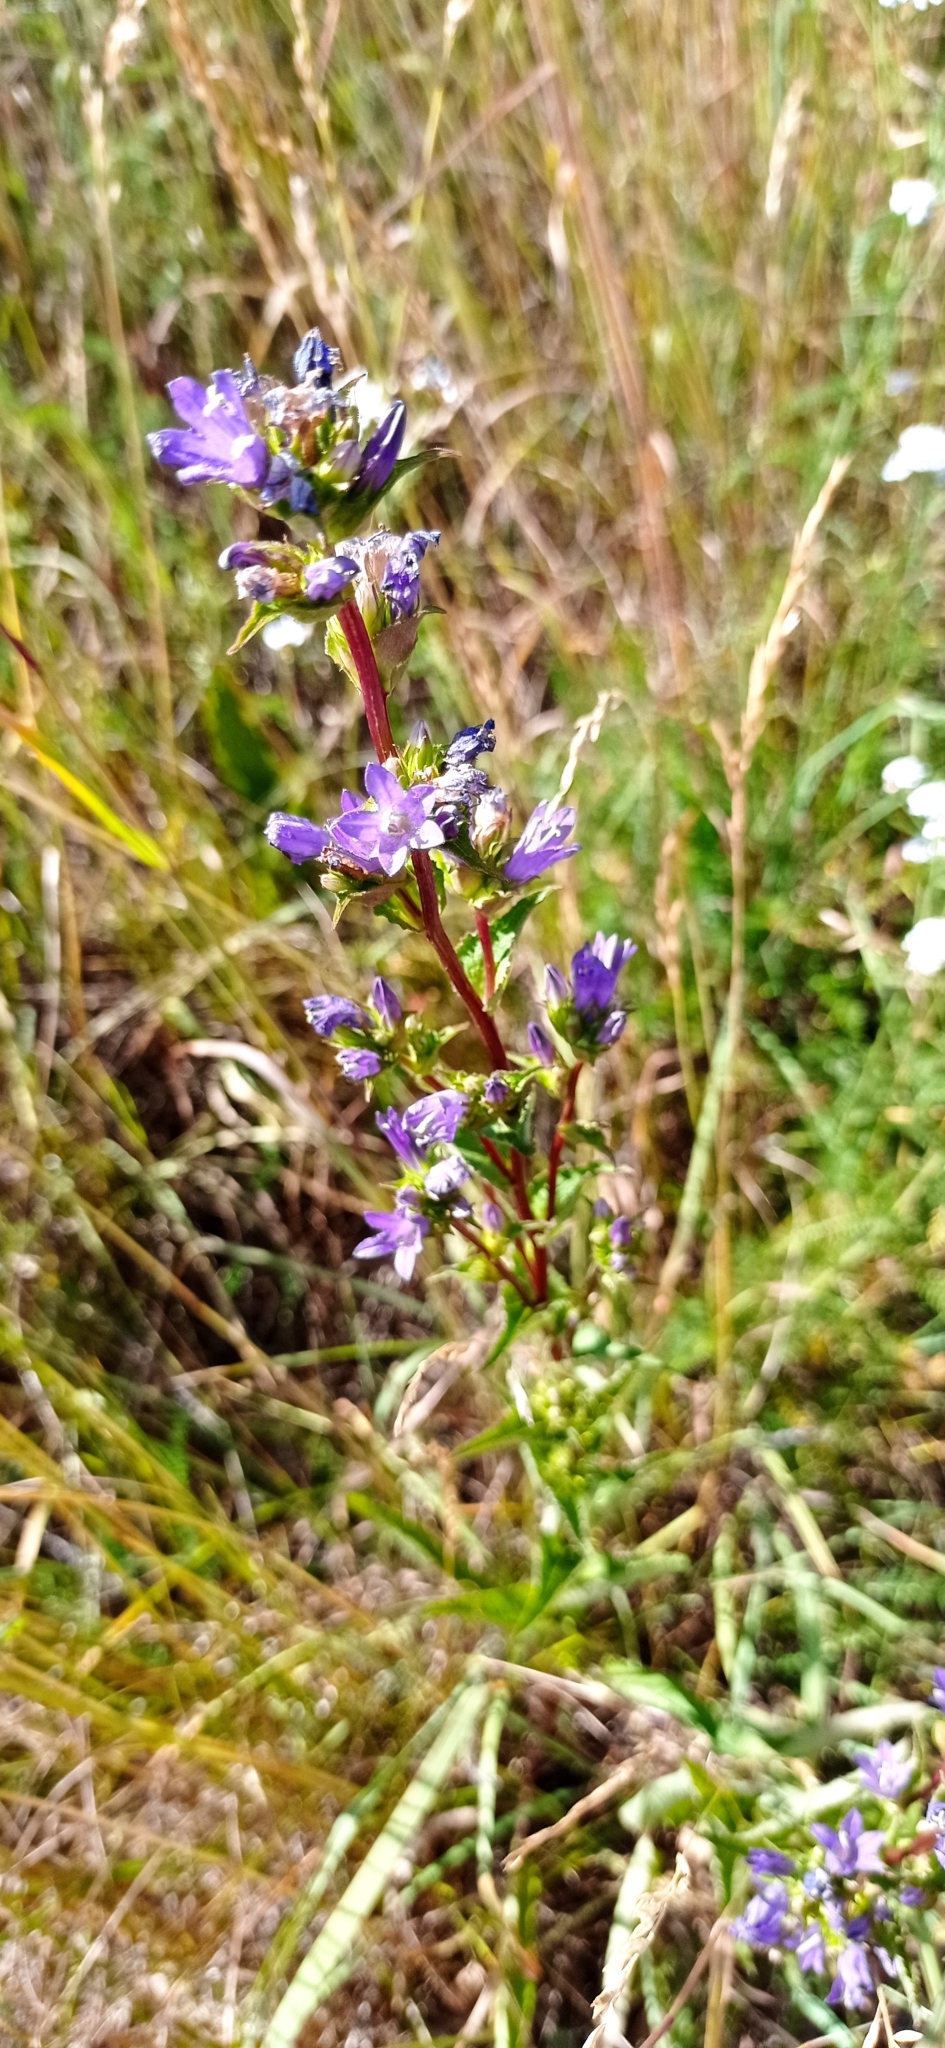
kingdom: Plantae
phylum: Tracheophyta
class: Magnoliopsida
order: Asterales
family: Campanulaceae
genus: Campanula
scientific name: Campanula glomerata
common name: Clustered bellflower
